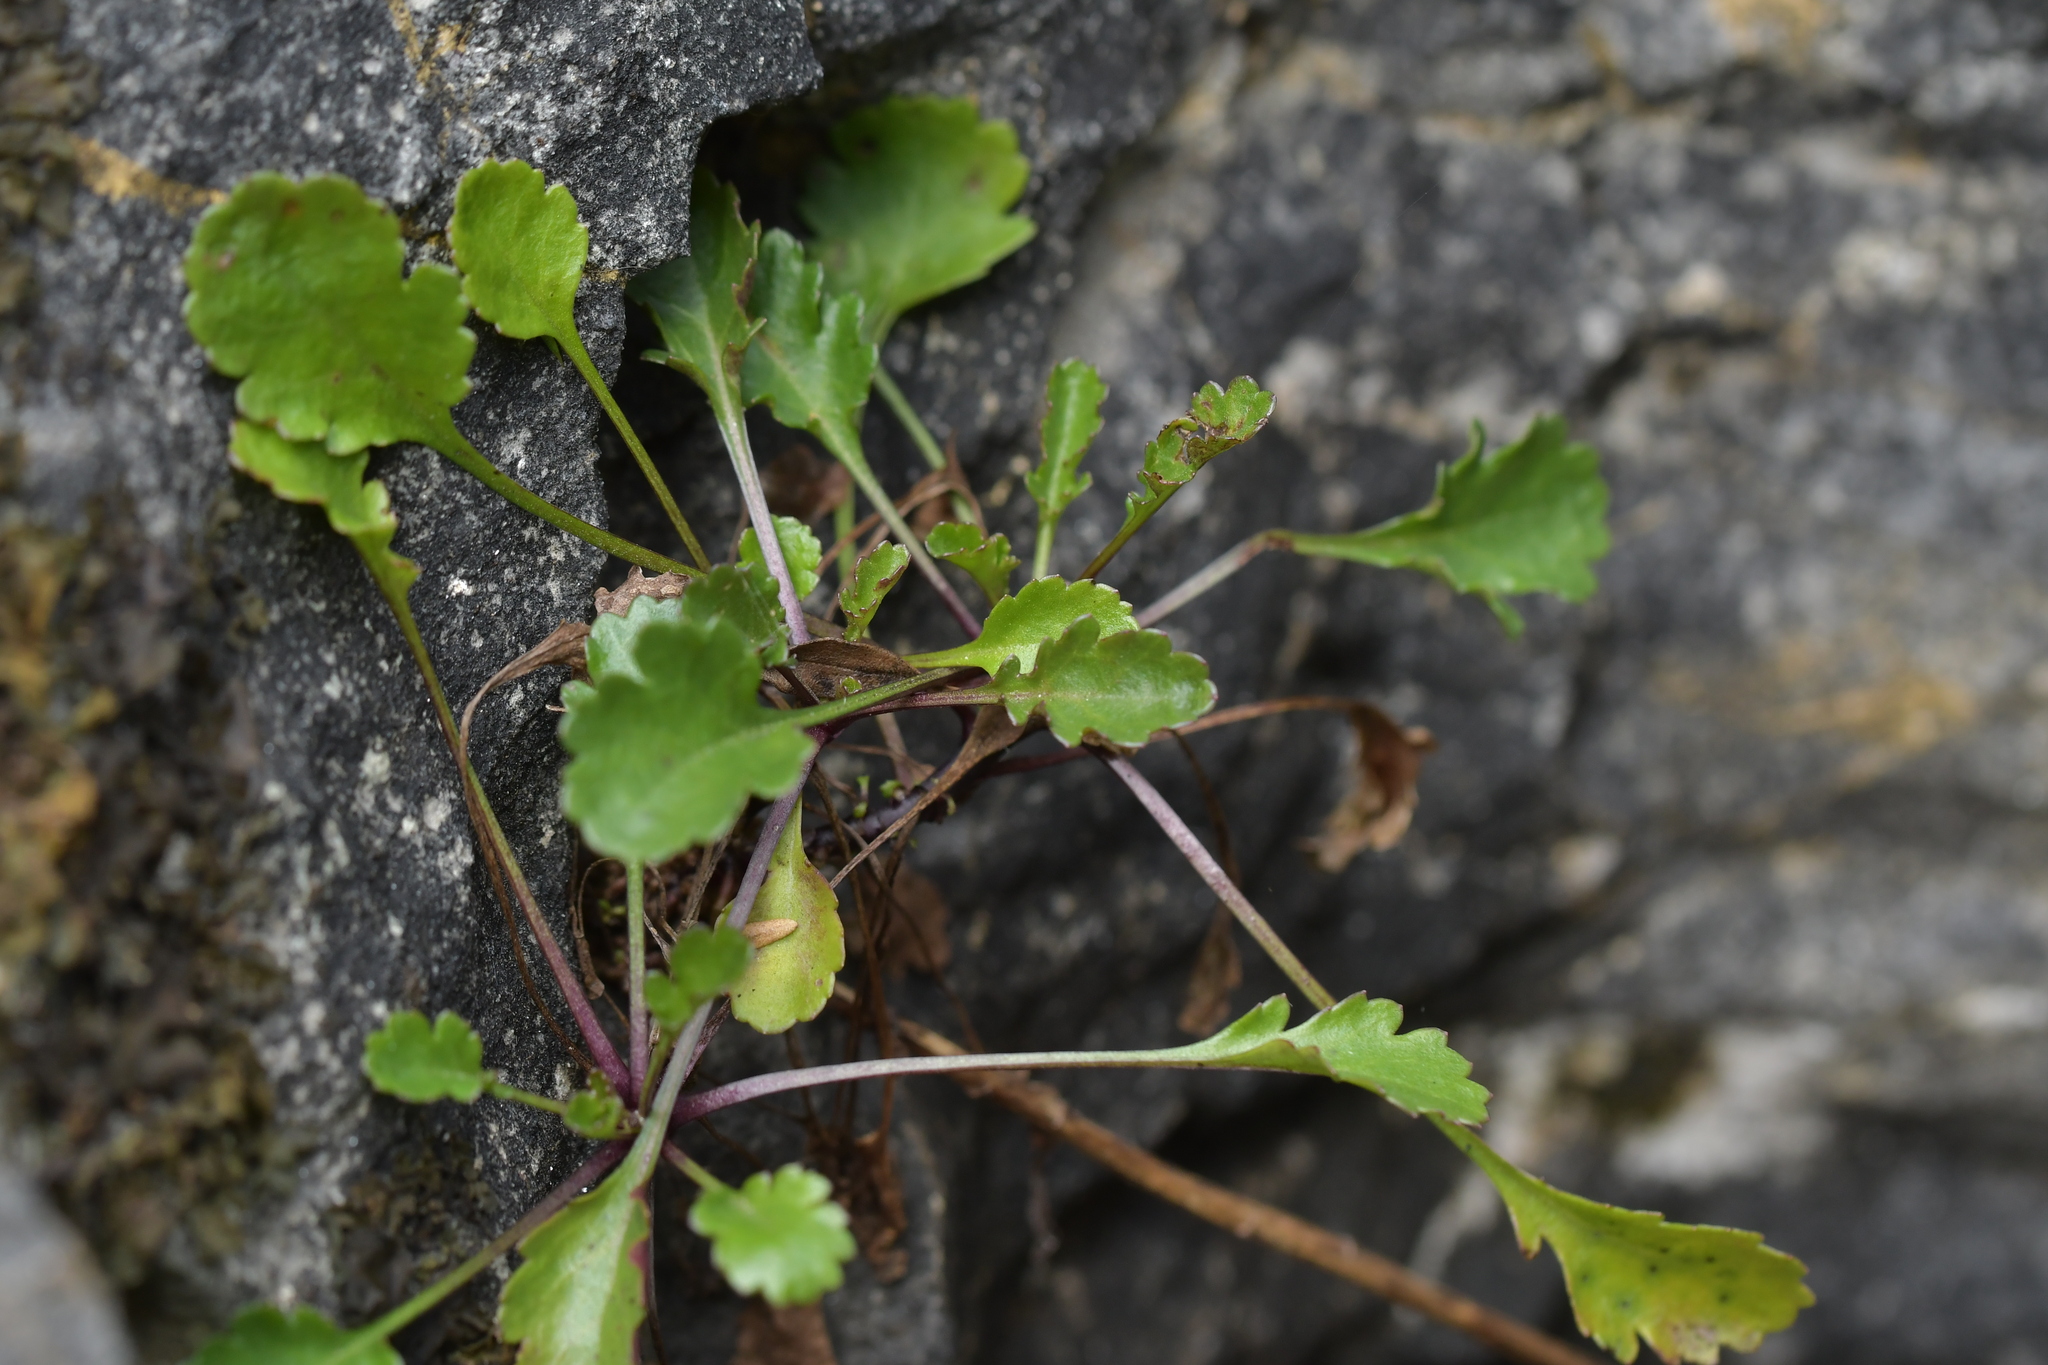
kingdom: Plantae
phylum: Tracheophyta
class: Magnoliopsida
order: Asterales
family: Asteraceae
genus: Leucanthemum
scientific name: Leucanthemum vulgare
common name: Oxeye daisy
